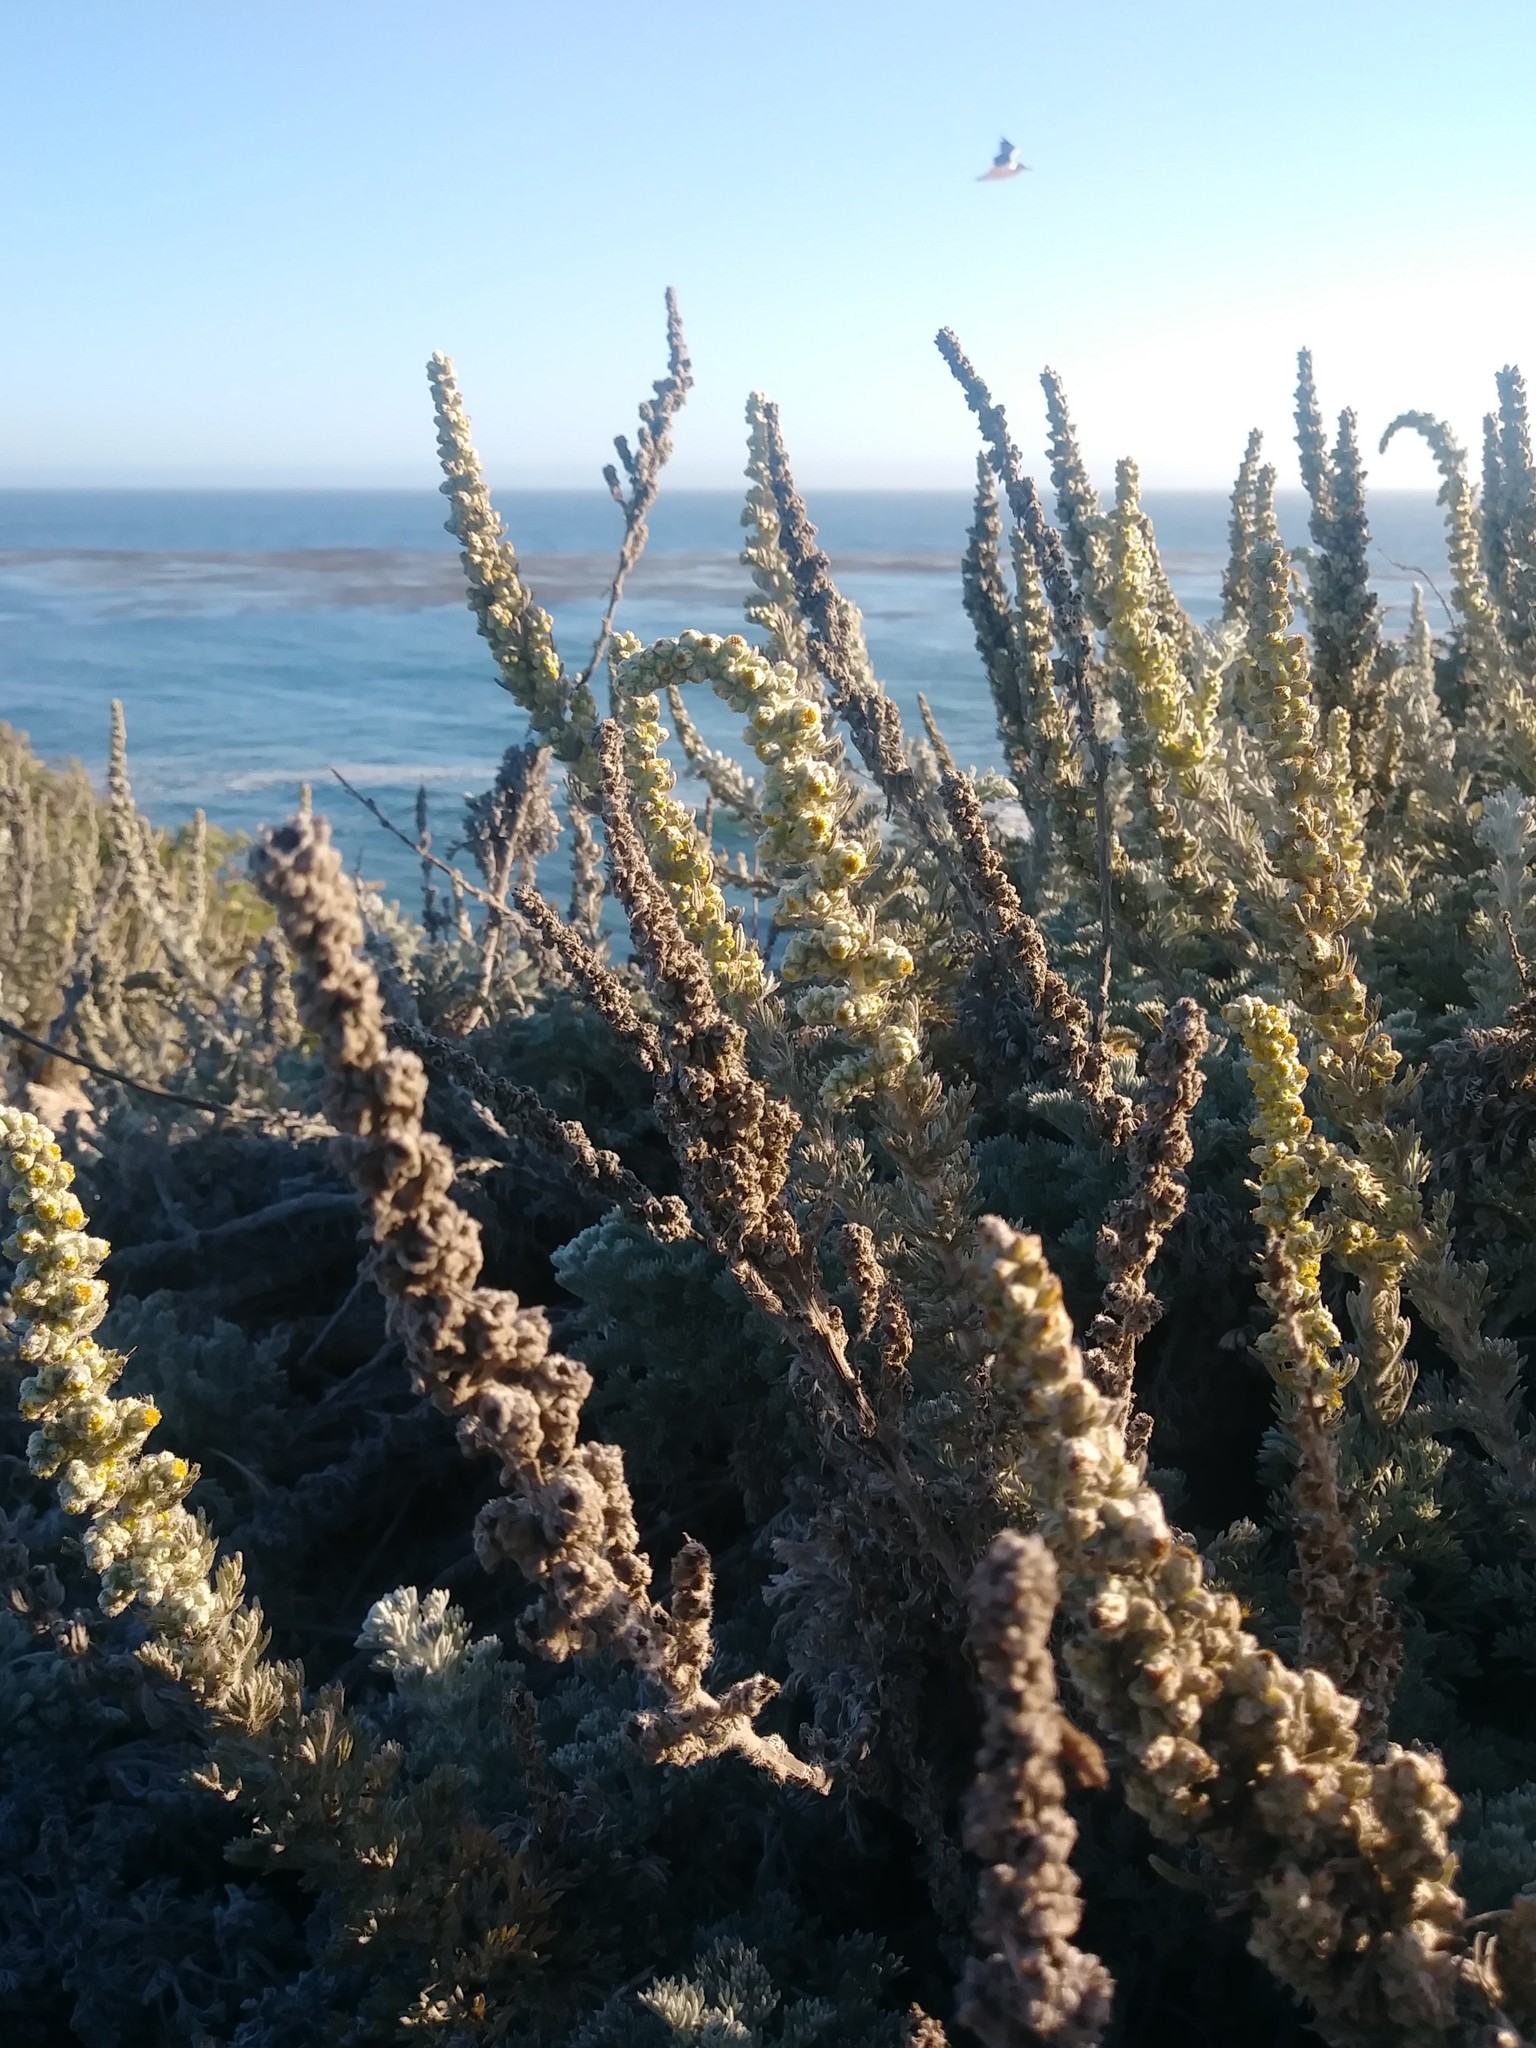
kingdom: Plantae
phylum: Tracheophyta
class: Magnoliopsida
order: Asterales
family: Asteraceae
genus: Artemisia
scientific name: Artemisia pycnocephala
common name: Coastal sagewort
